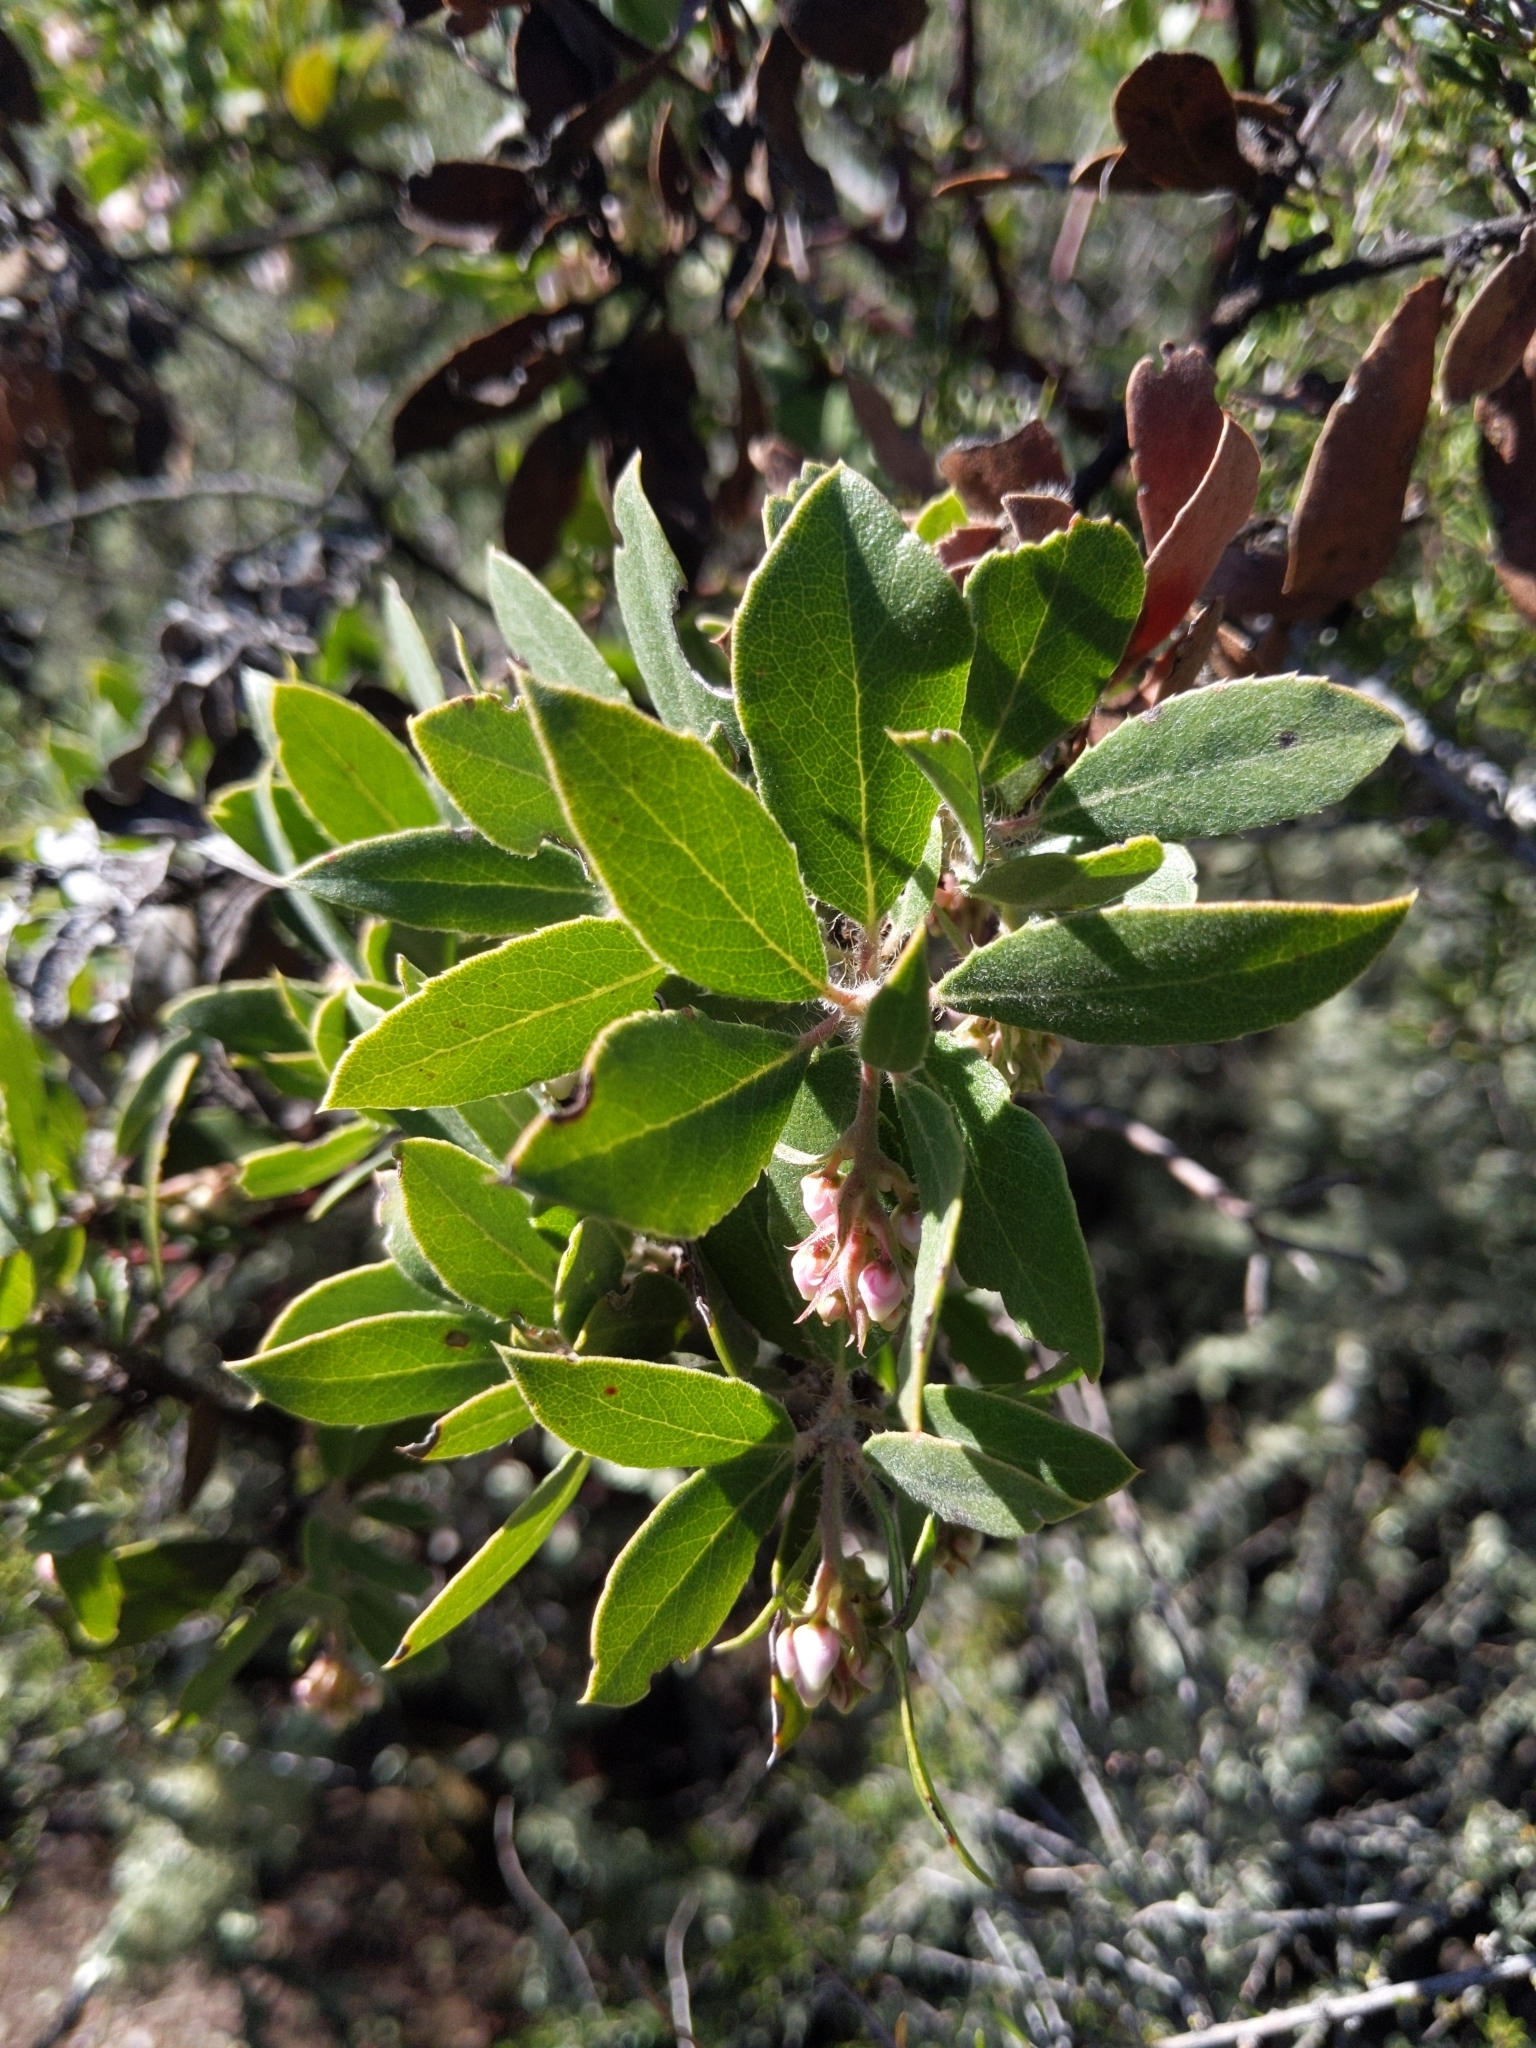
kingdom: Plantae
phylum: Tracheophyta
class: Magnoliopsida
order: Ericales
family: Ericaceae
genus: Arctostaphylos
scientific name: Arctostaphylos crustacea
